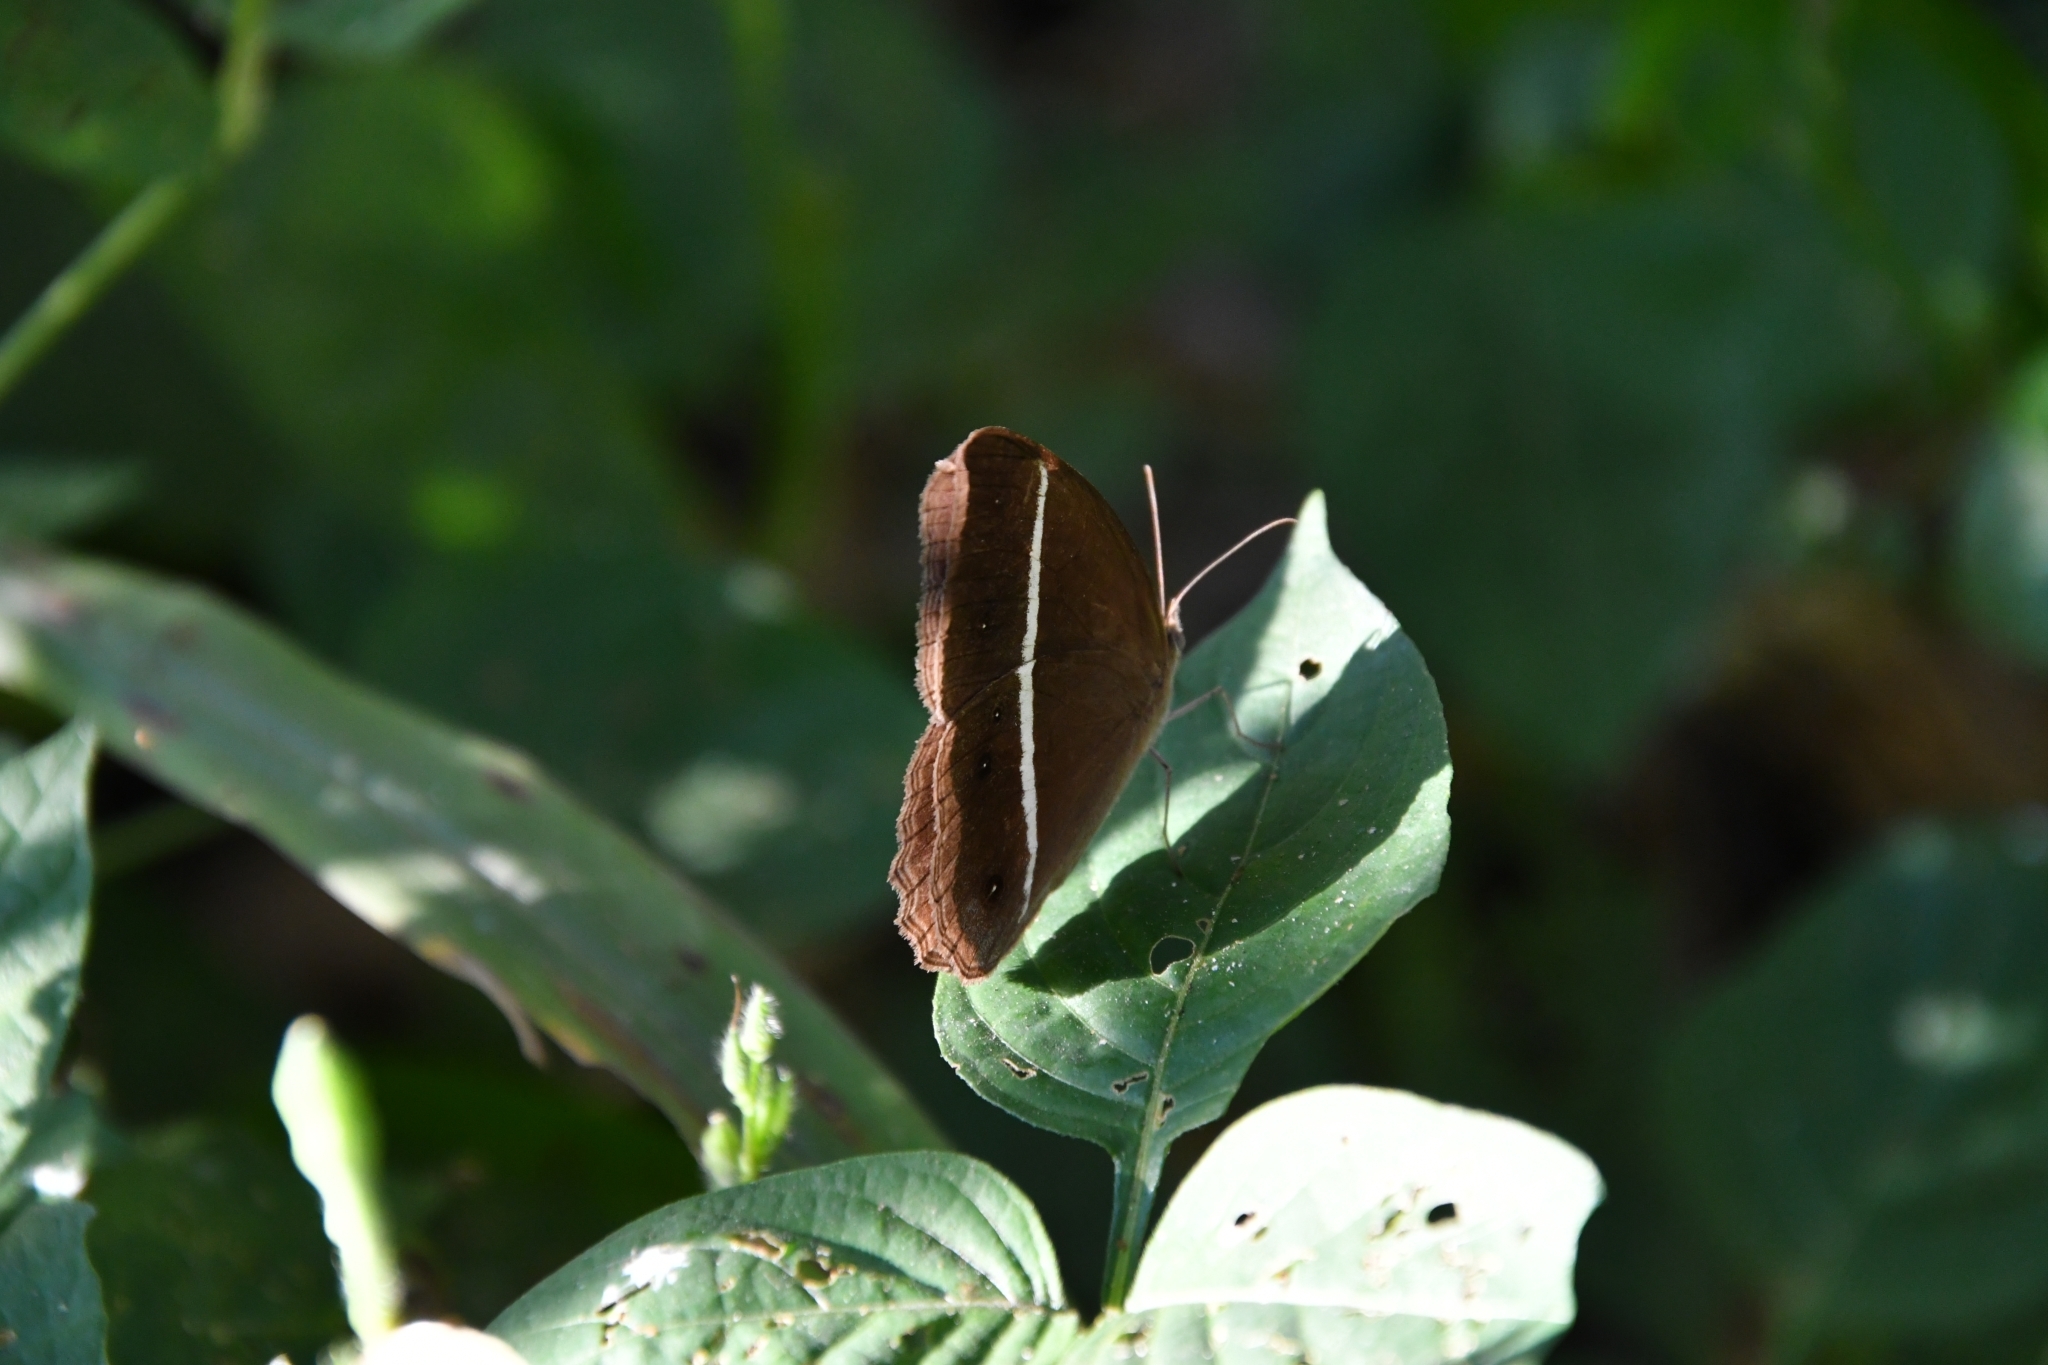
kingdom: Animalia
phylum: Arthropoda
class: Insecta
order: Lepidoptera
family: Nymphalidae
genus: Orsotriaena
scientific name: Orsotriaena medus
